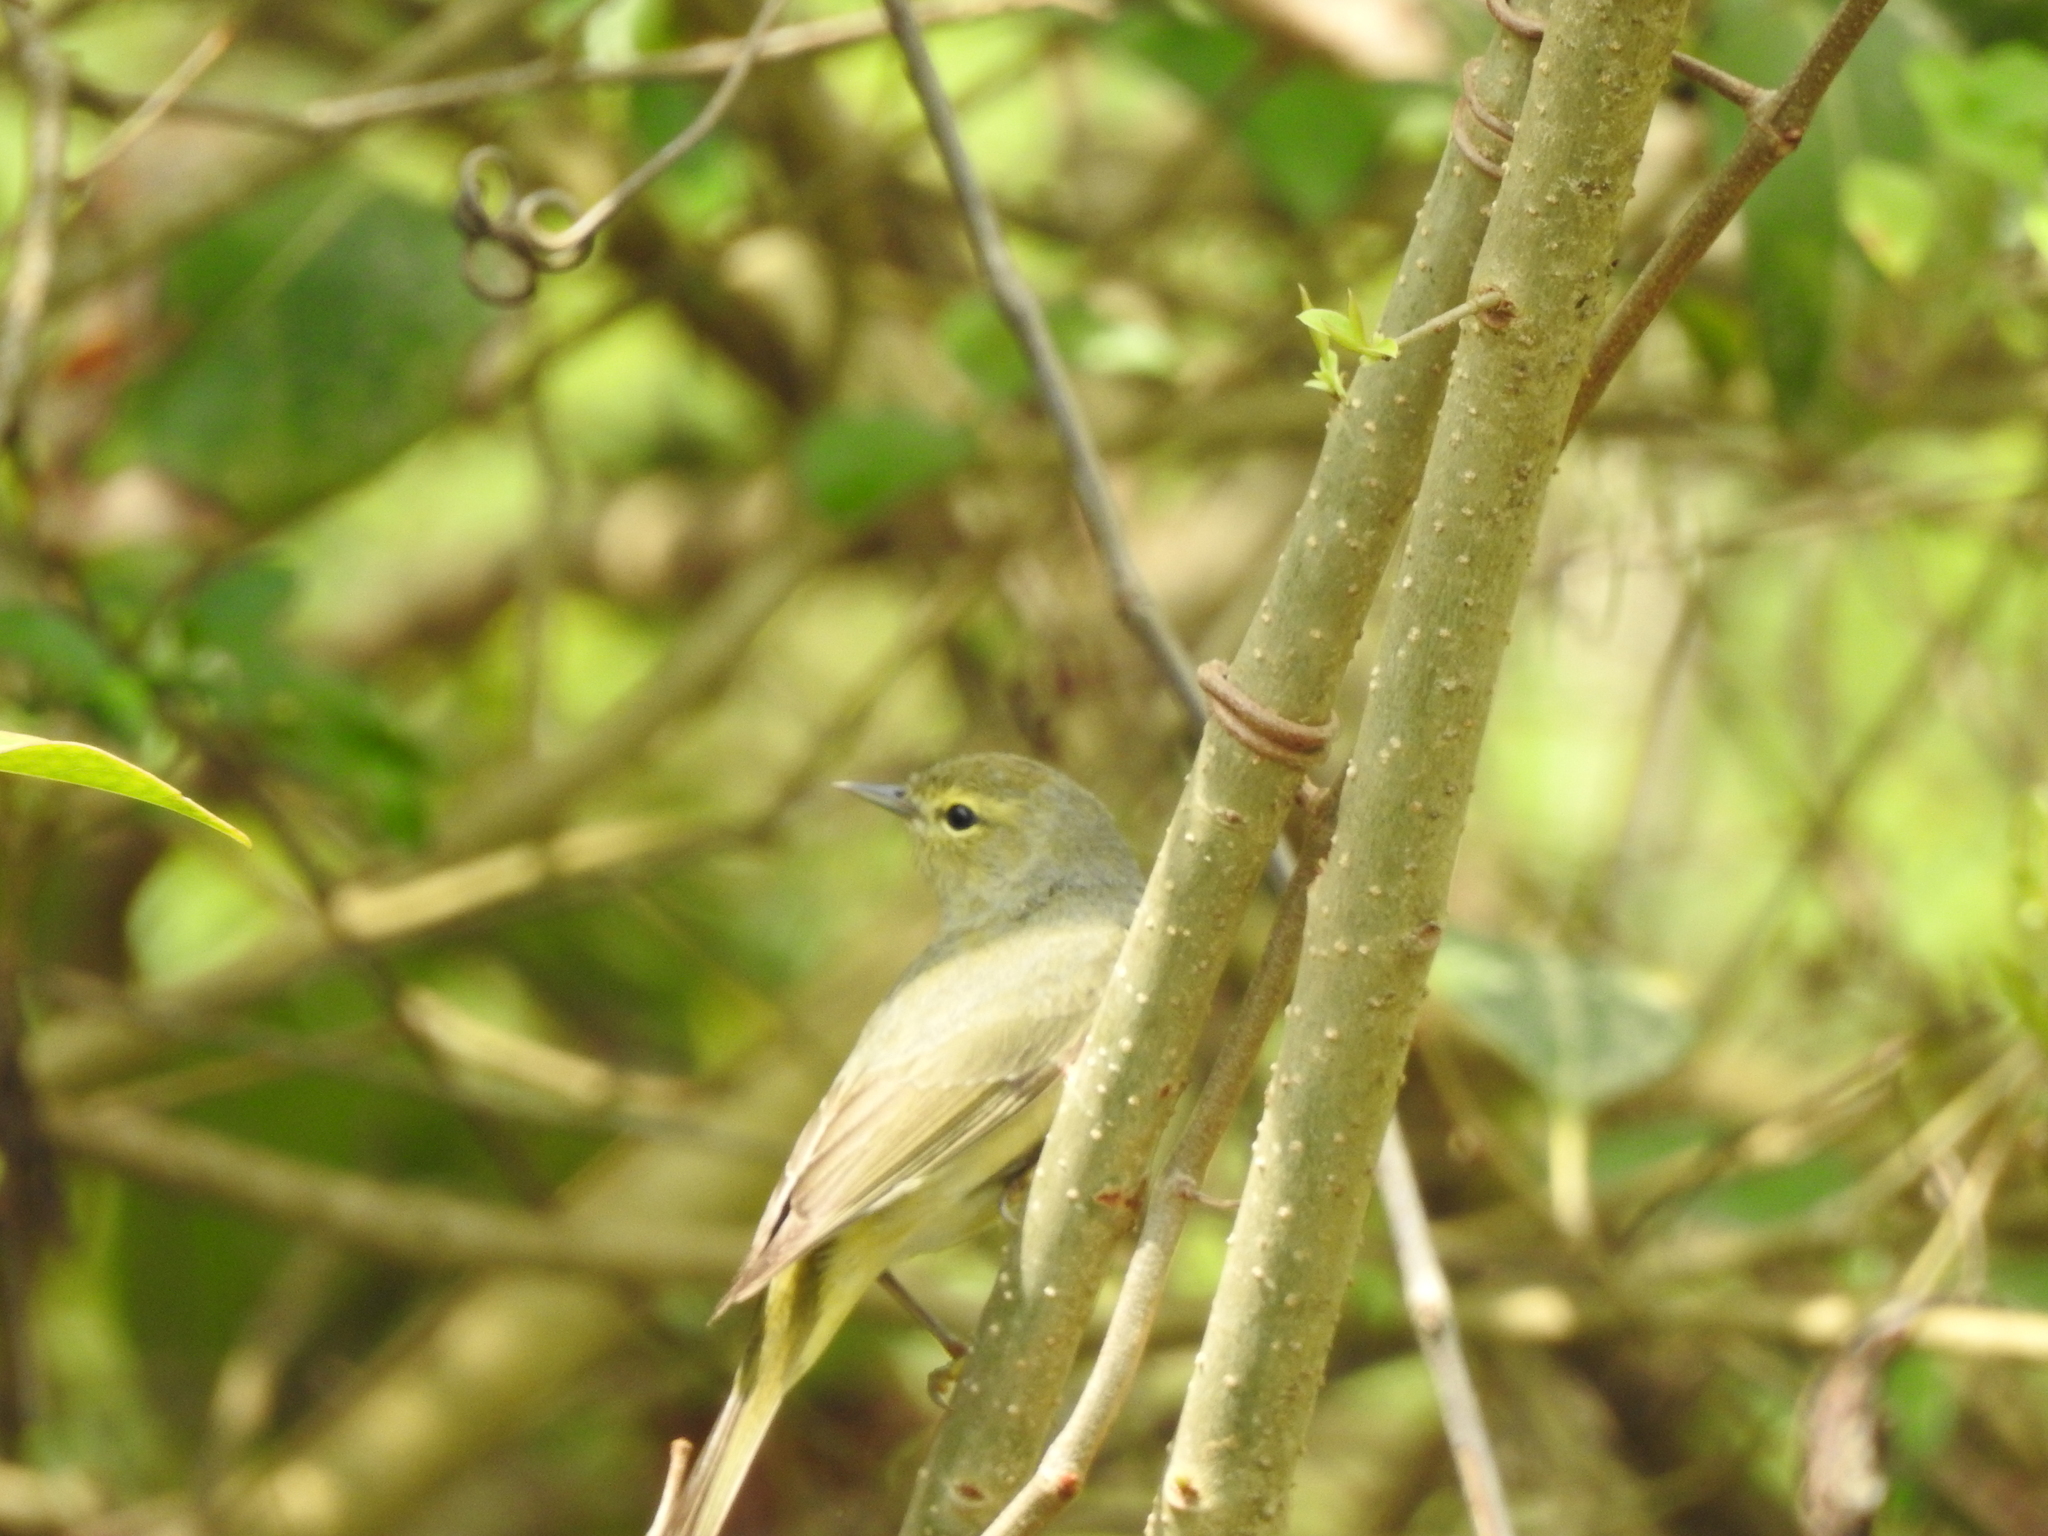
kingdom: Animalia
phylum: Chordata
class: Aves
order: Passeriformes
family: Parulidae
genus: Leiothlypis
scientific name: Leiothlypis celata
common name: Orange-crowned warbler
